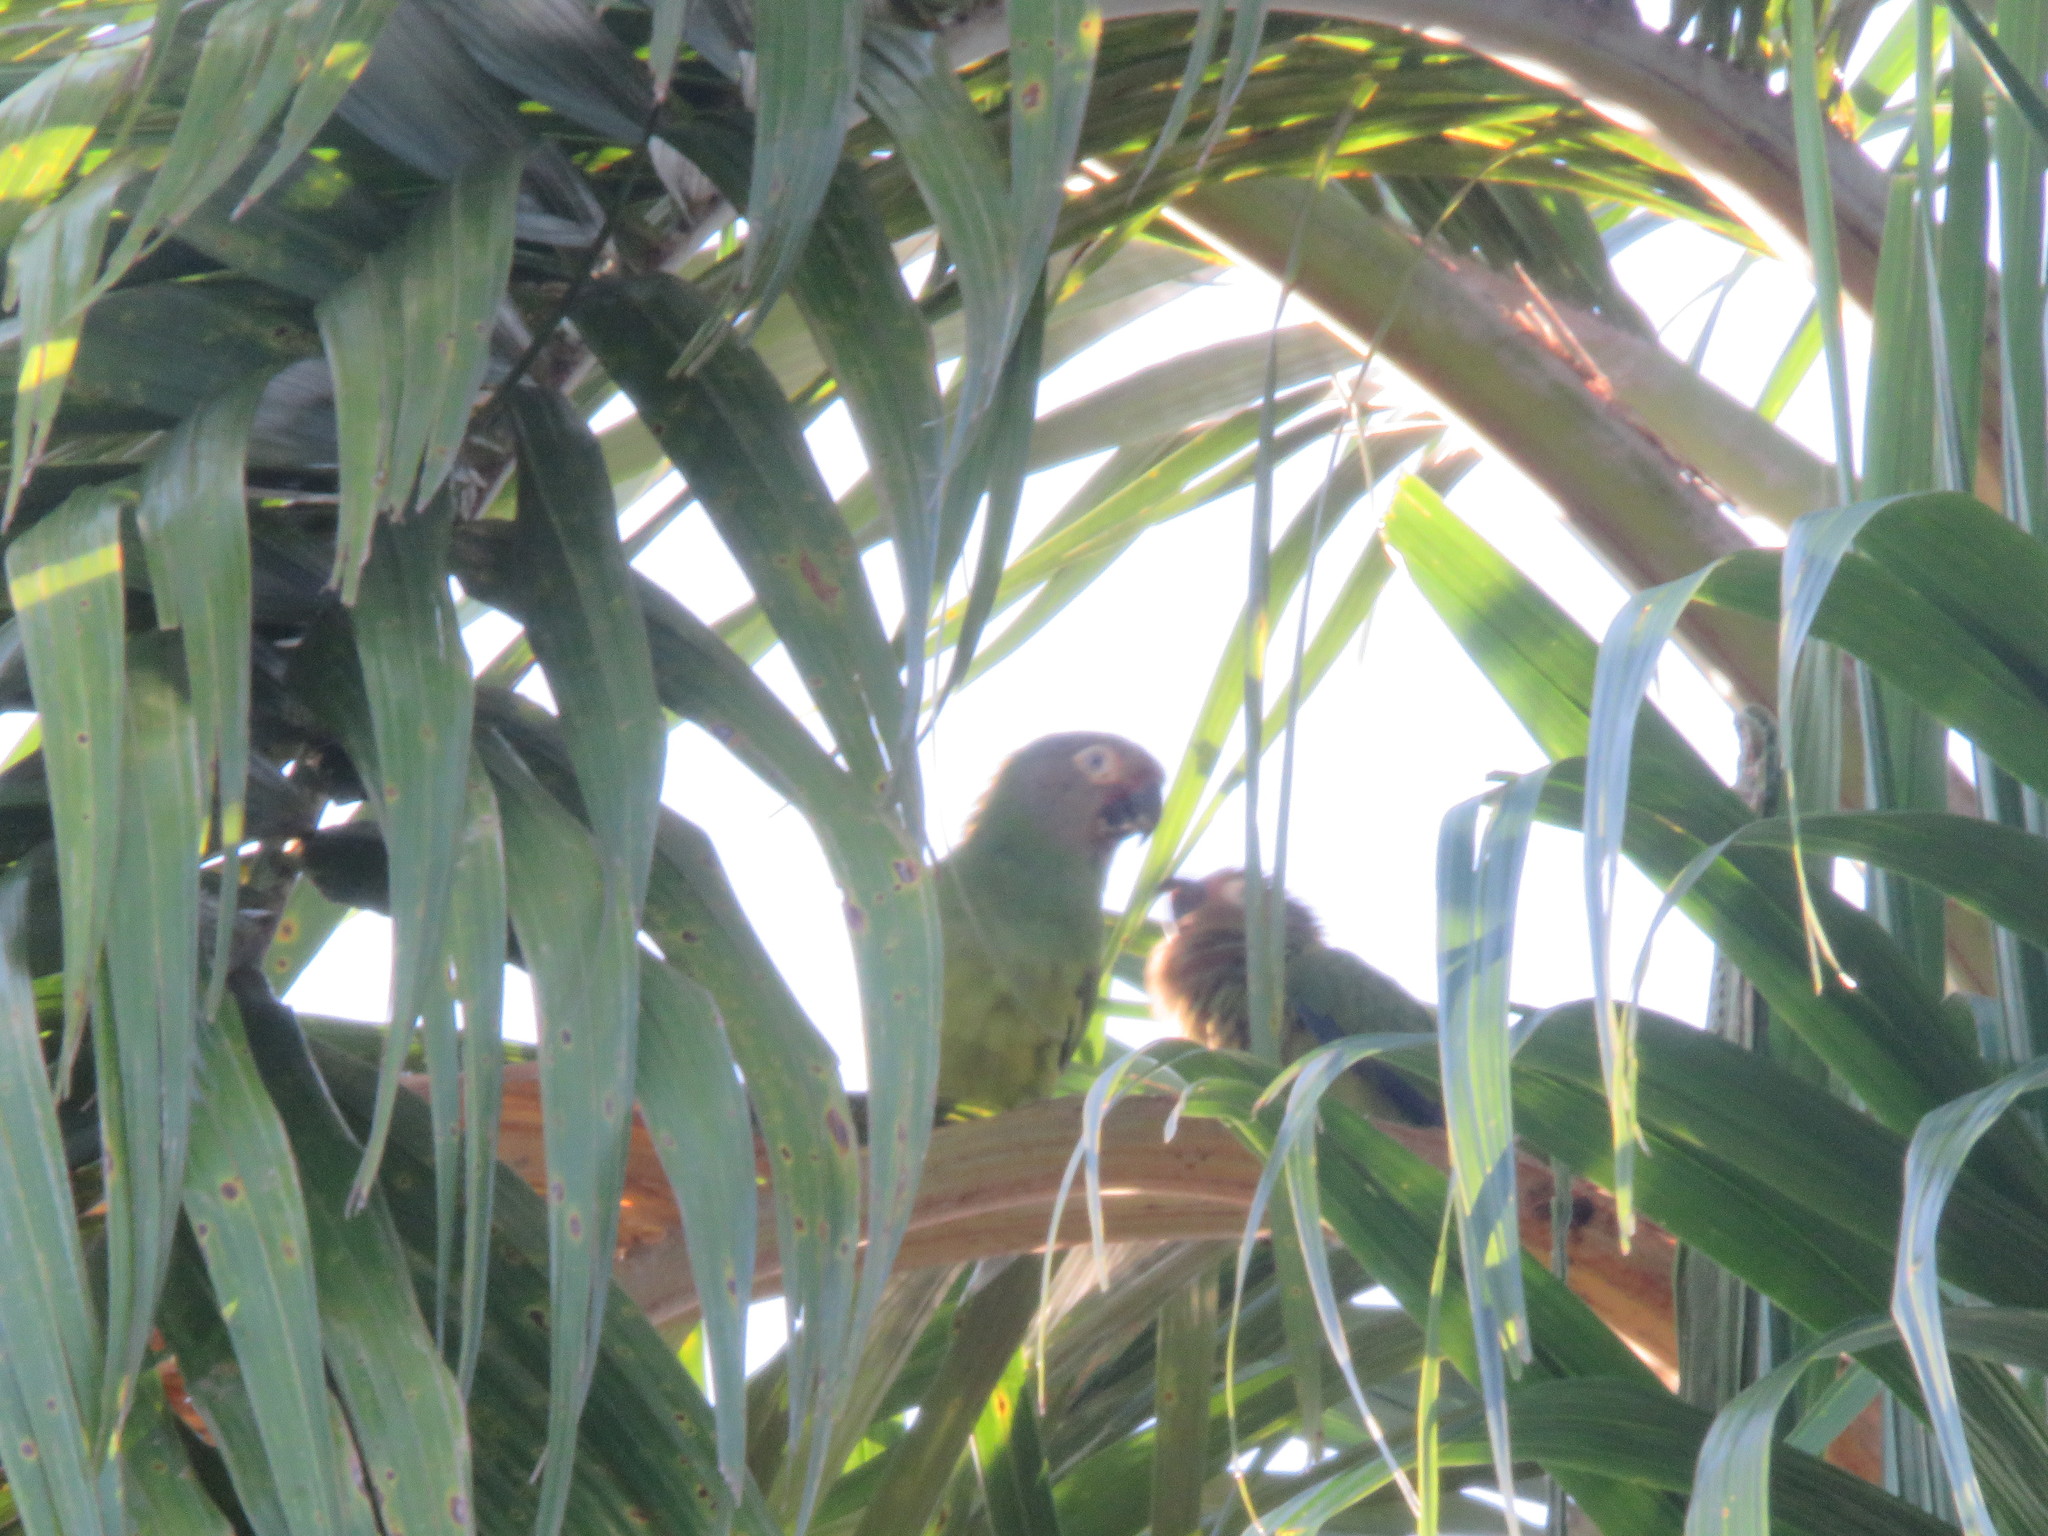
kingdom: Animalia
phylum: Chordata
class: Aves
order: Psittaciformes
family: Psittacidae
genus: Aratinga
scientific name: Aratinga weddellii
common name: Dusky-headed parakeet
